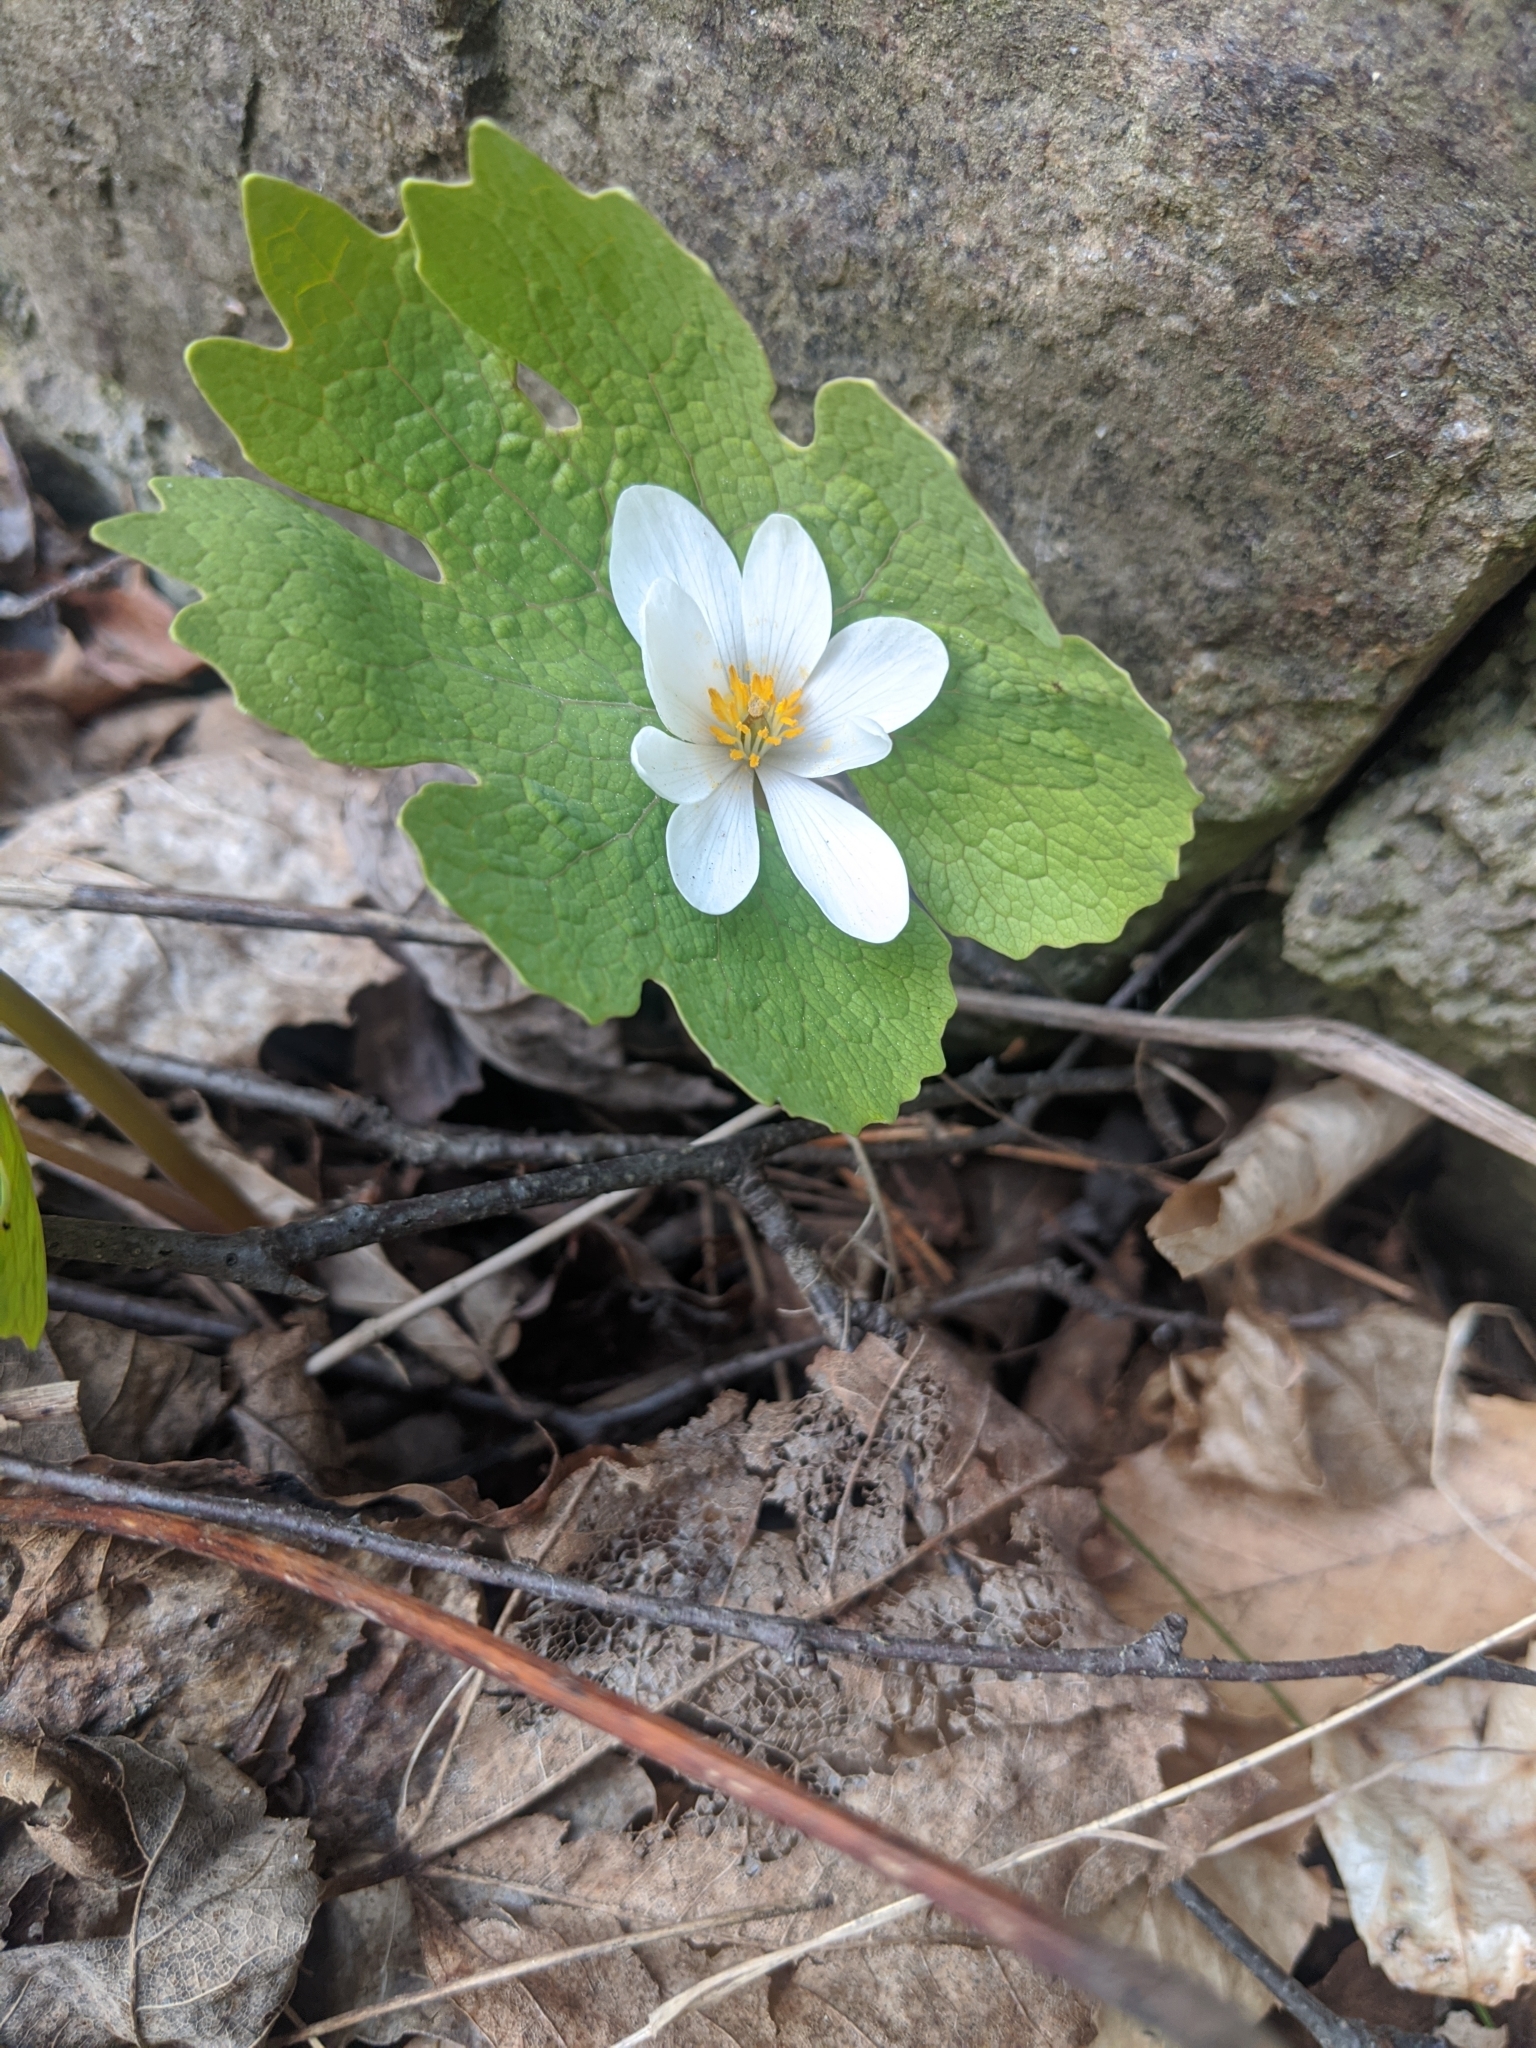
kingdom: Plantae
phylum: Tracheophyta
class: Magnoliopsida
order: Ranunculales
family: Papaveraceae
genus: Sanguinaria
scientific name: Sanguinaria canadensis
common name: Bloodroot
